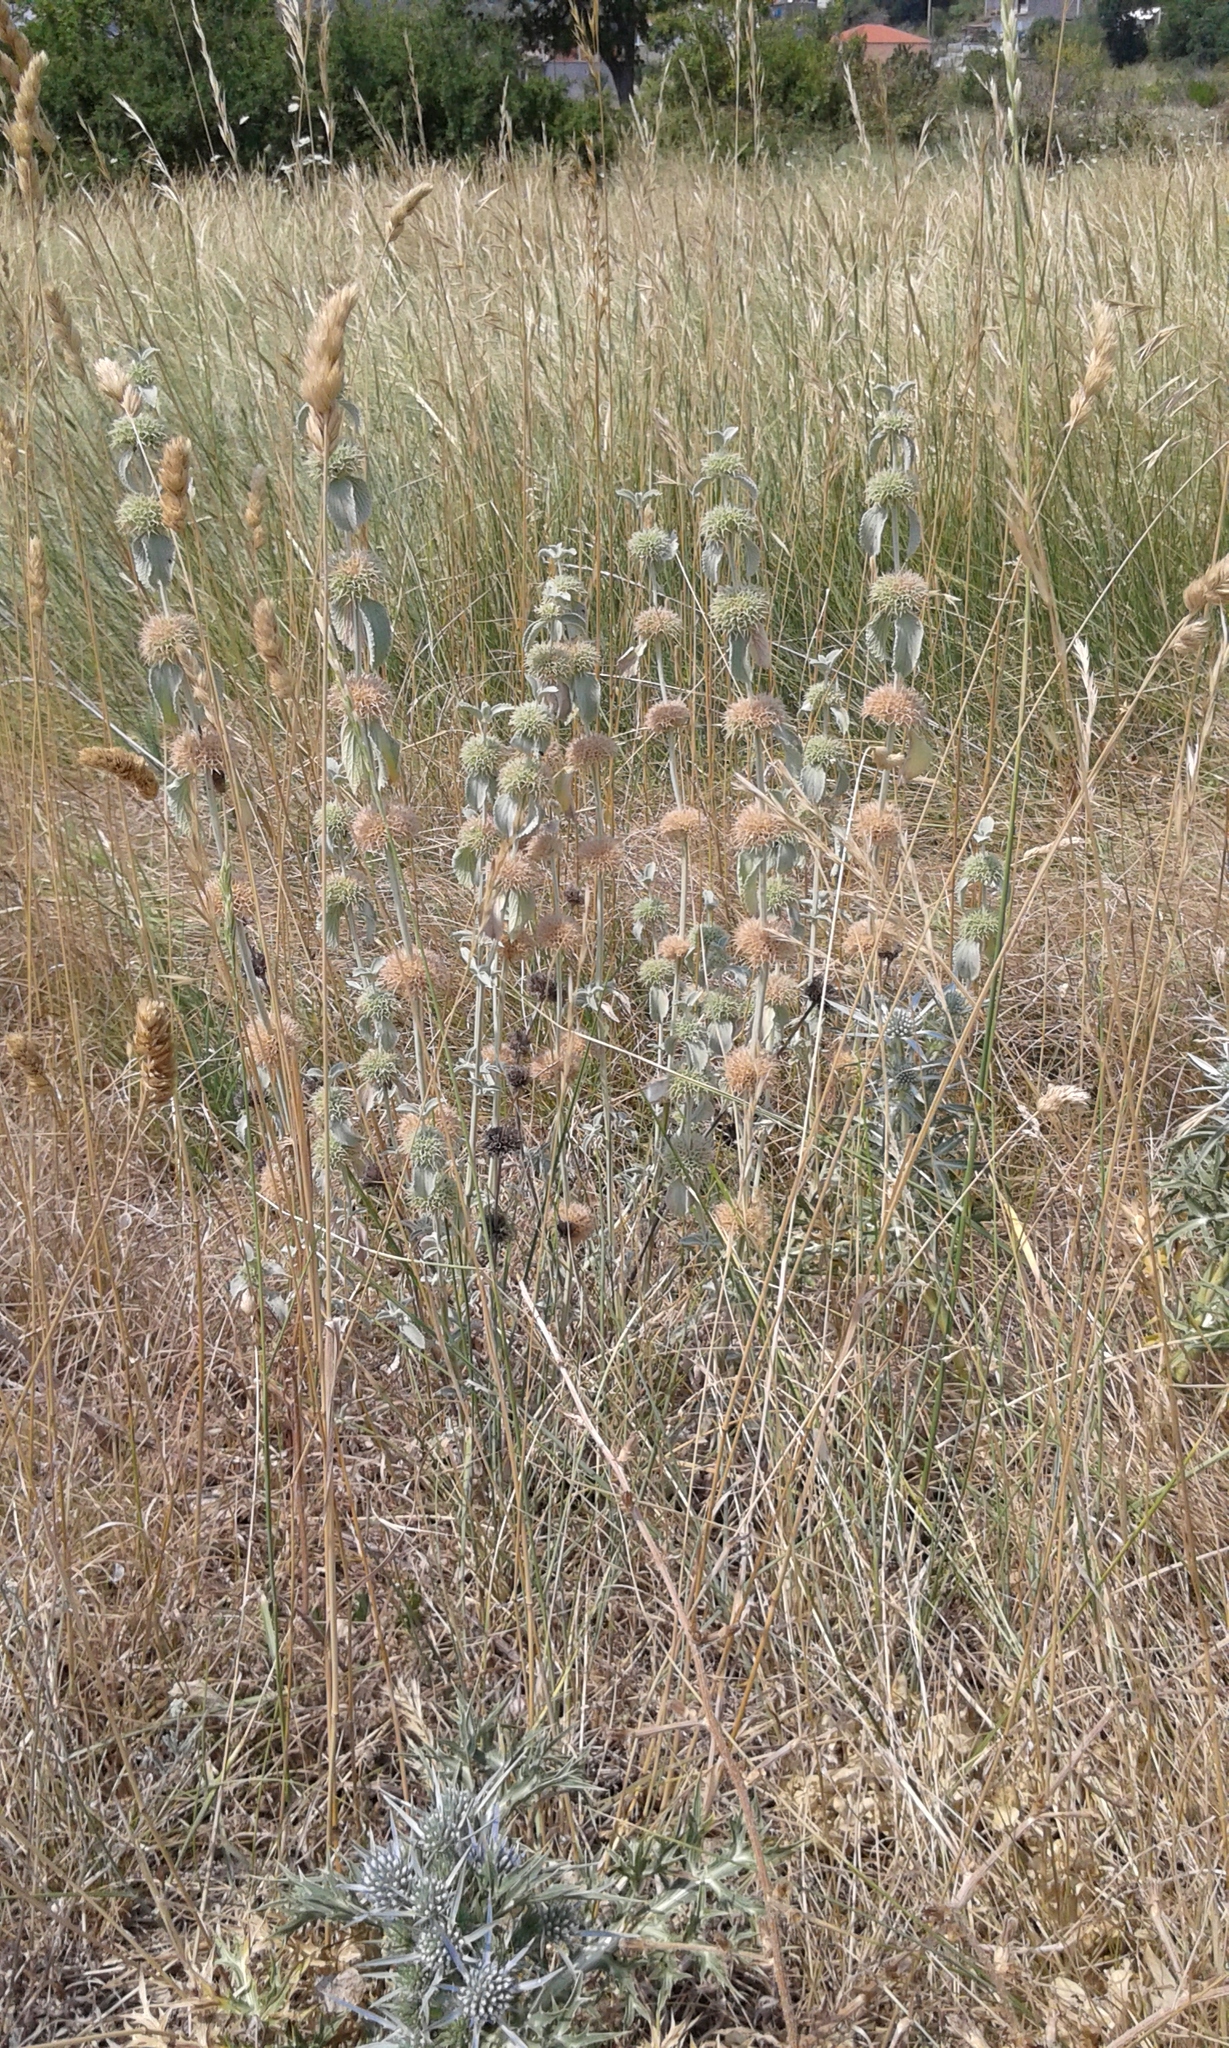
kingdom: Plantae
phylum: Tracheophyta
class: Magnoliopsida
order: Lamiales
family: Lamiaceae
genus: Marrubium
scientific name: Marrubium incanum
